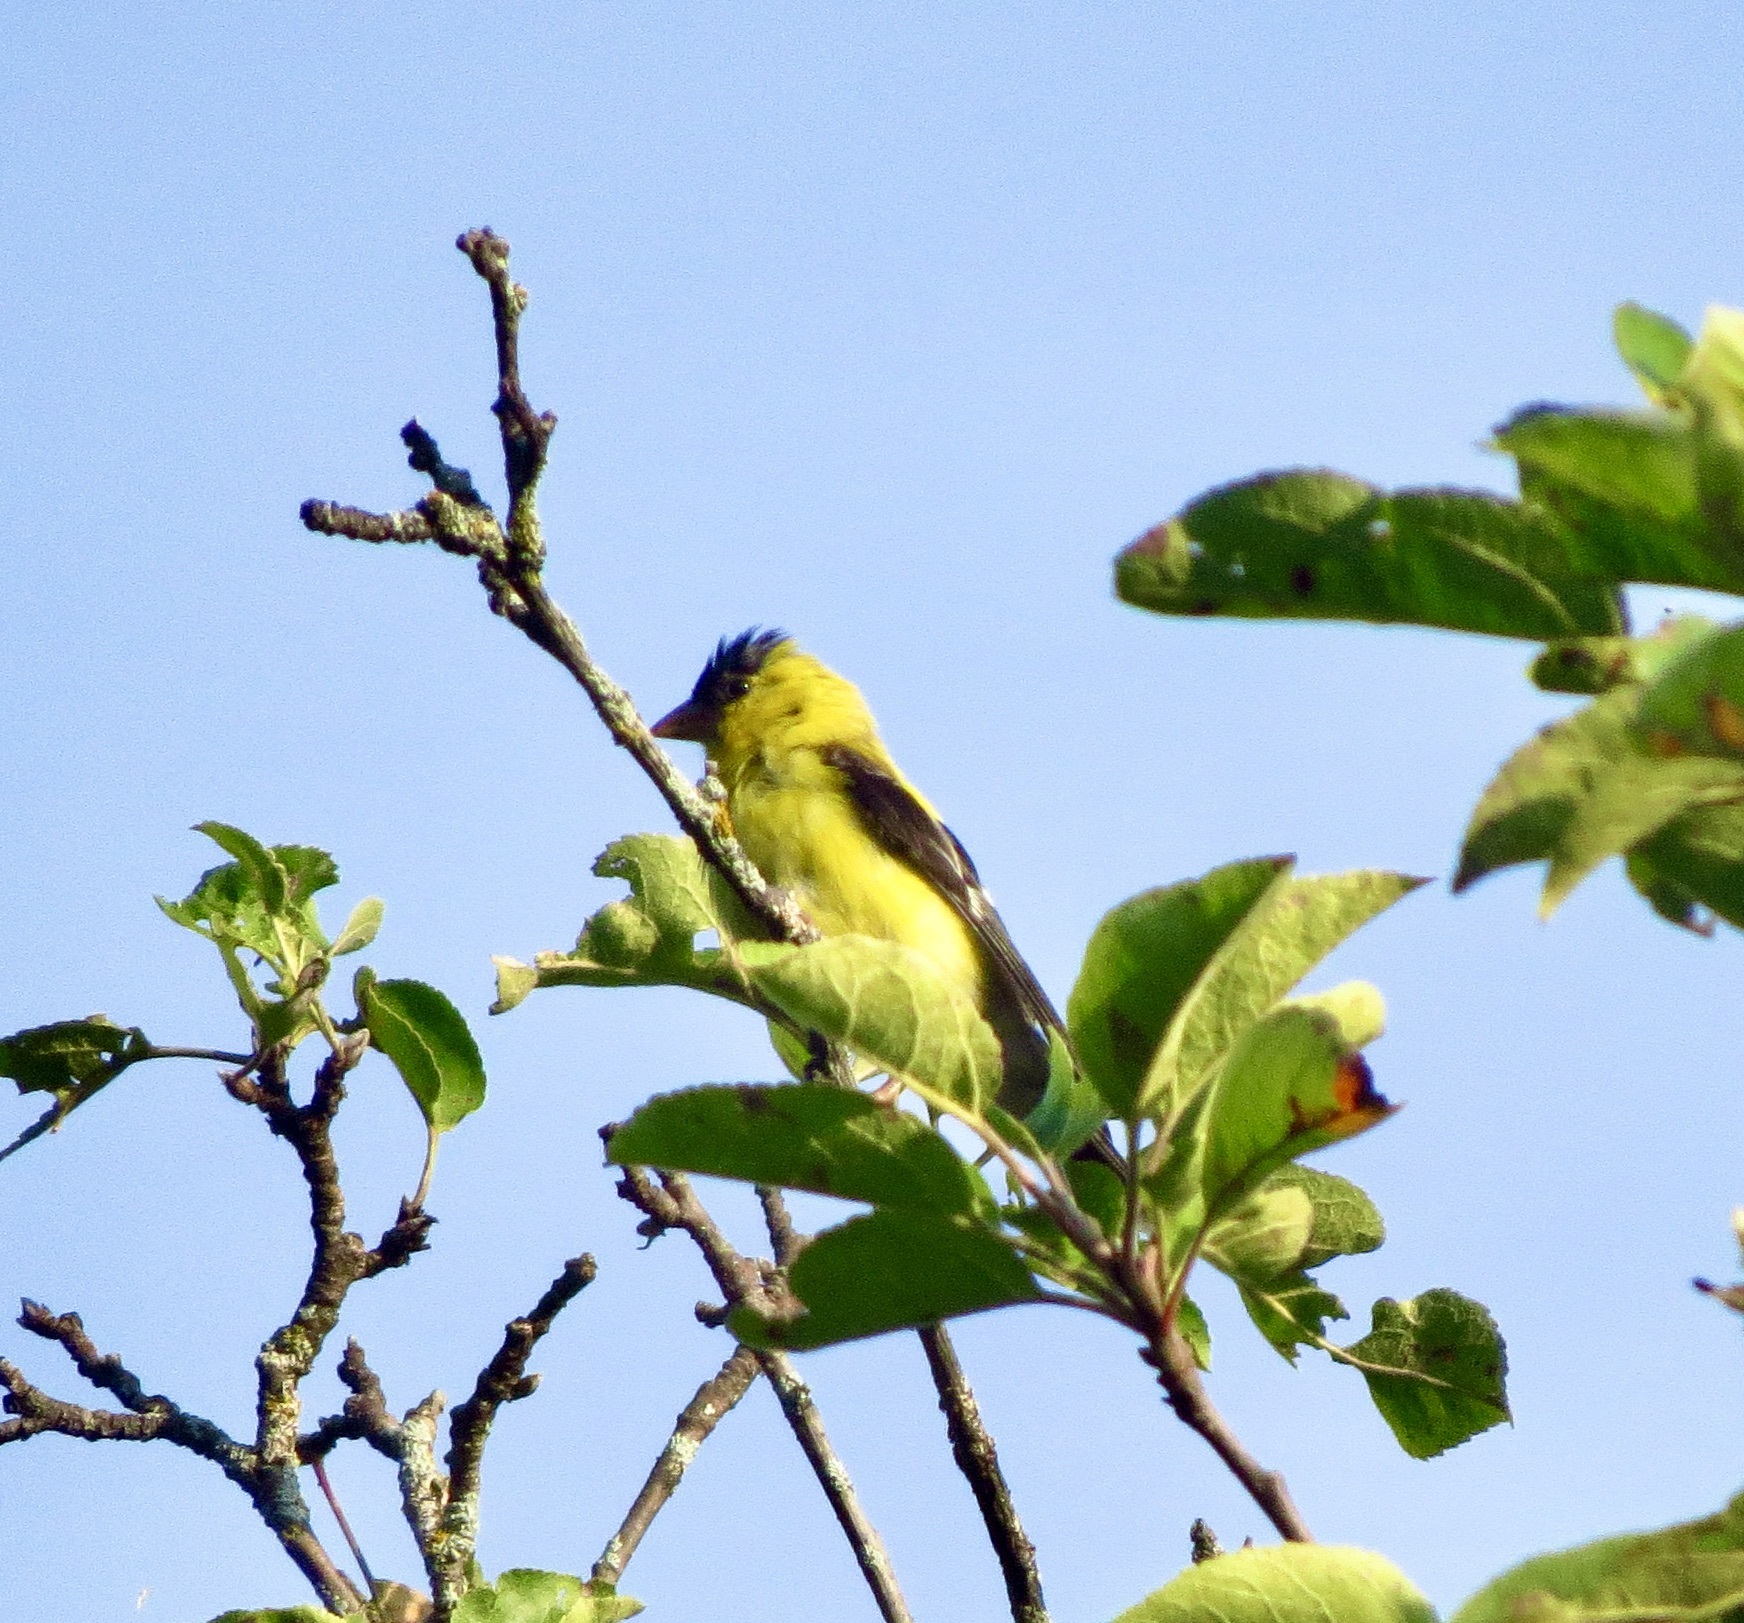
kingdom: Animalia
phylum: Chordata
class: Aves
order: Passeriformes
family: Fringillidae
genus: Spinus
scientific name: Spinus tristis
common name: American goldfinch
